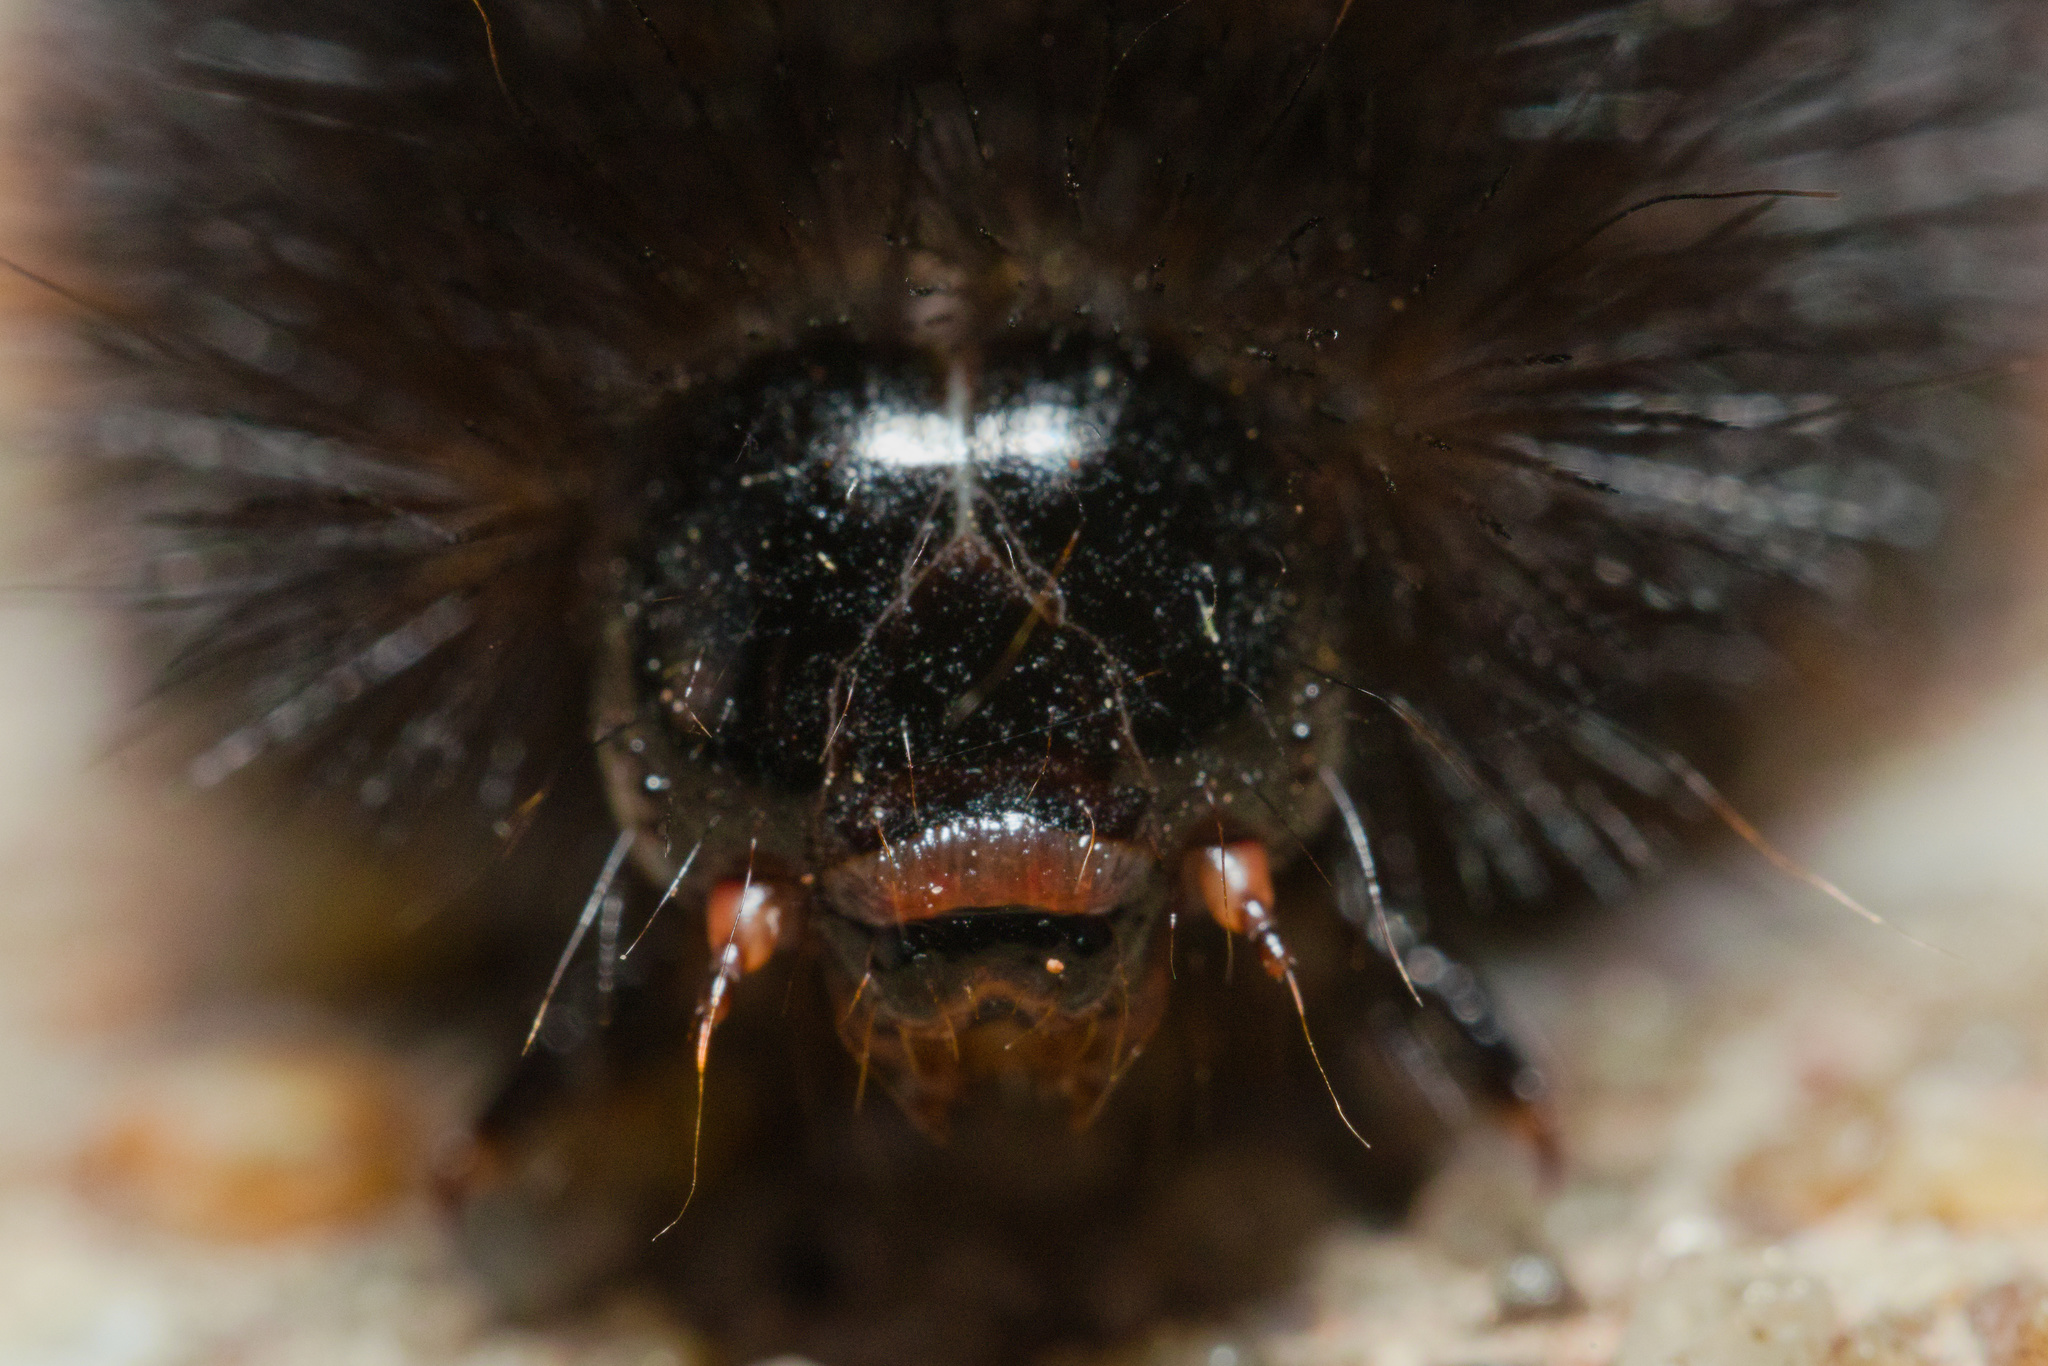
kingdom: Animalia
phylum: Arthropoda
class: Insecta
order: Lepidoptera
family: Erebidae
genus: Pyrrharctia
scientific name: Pyrrharctia isabella
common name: Isabella tiger moth
